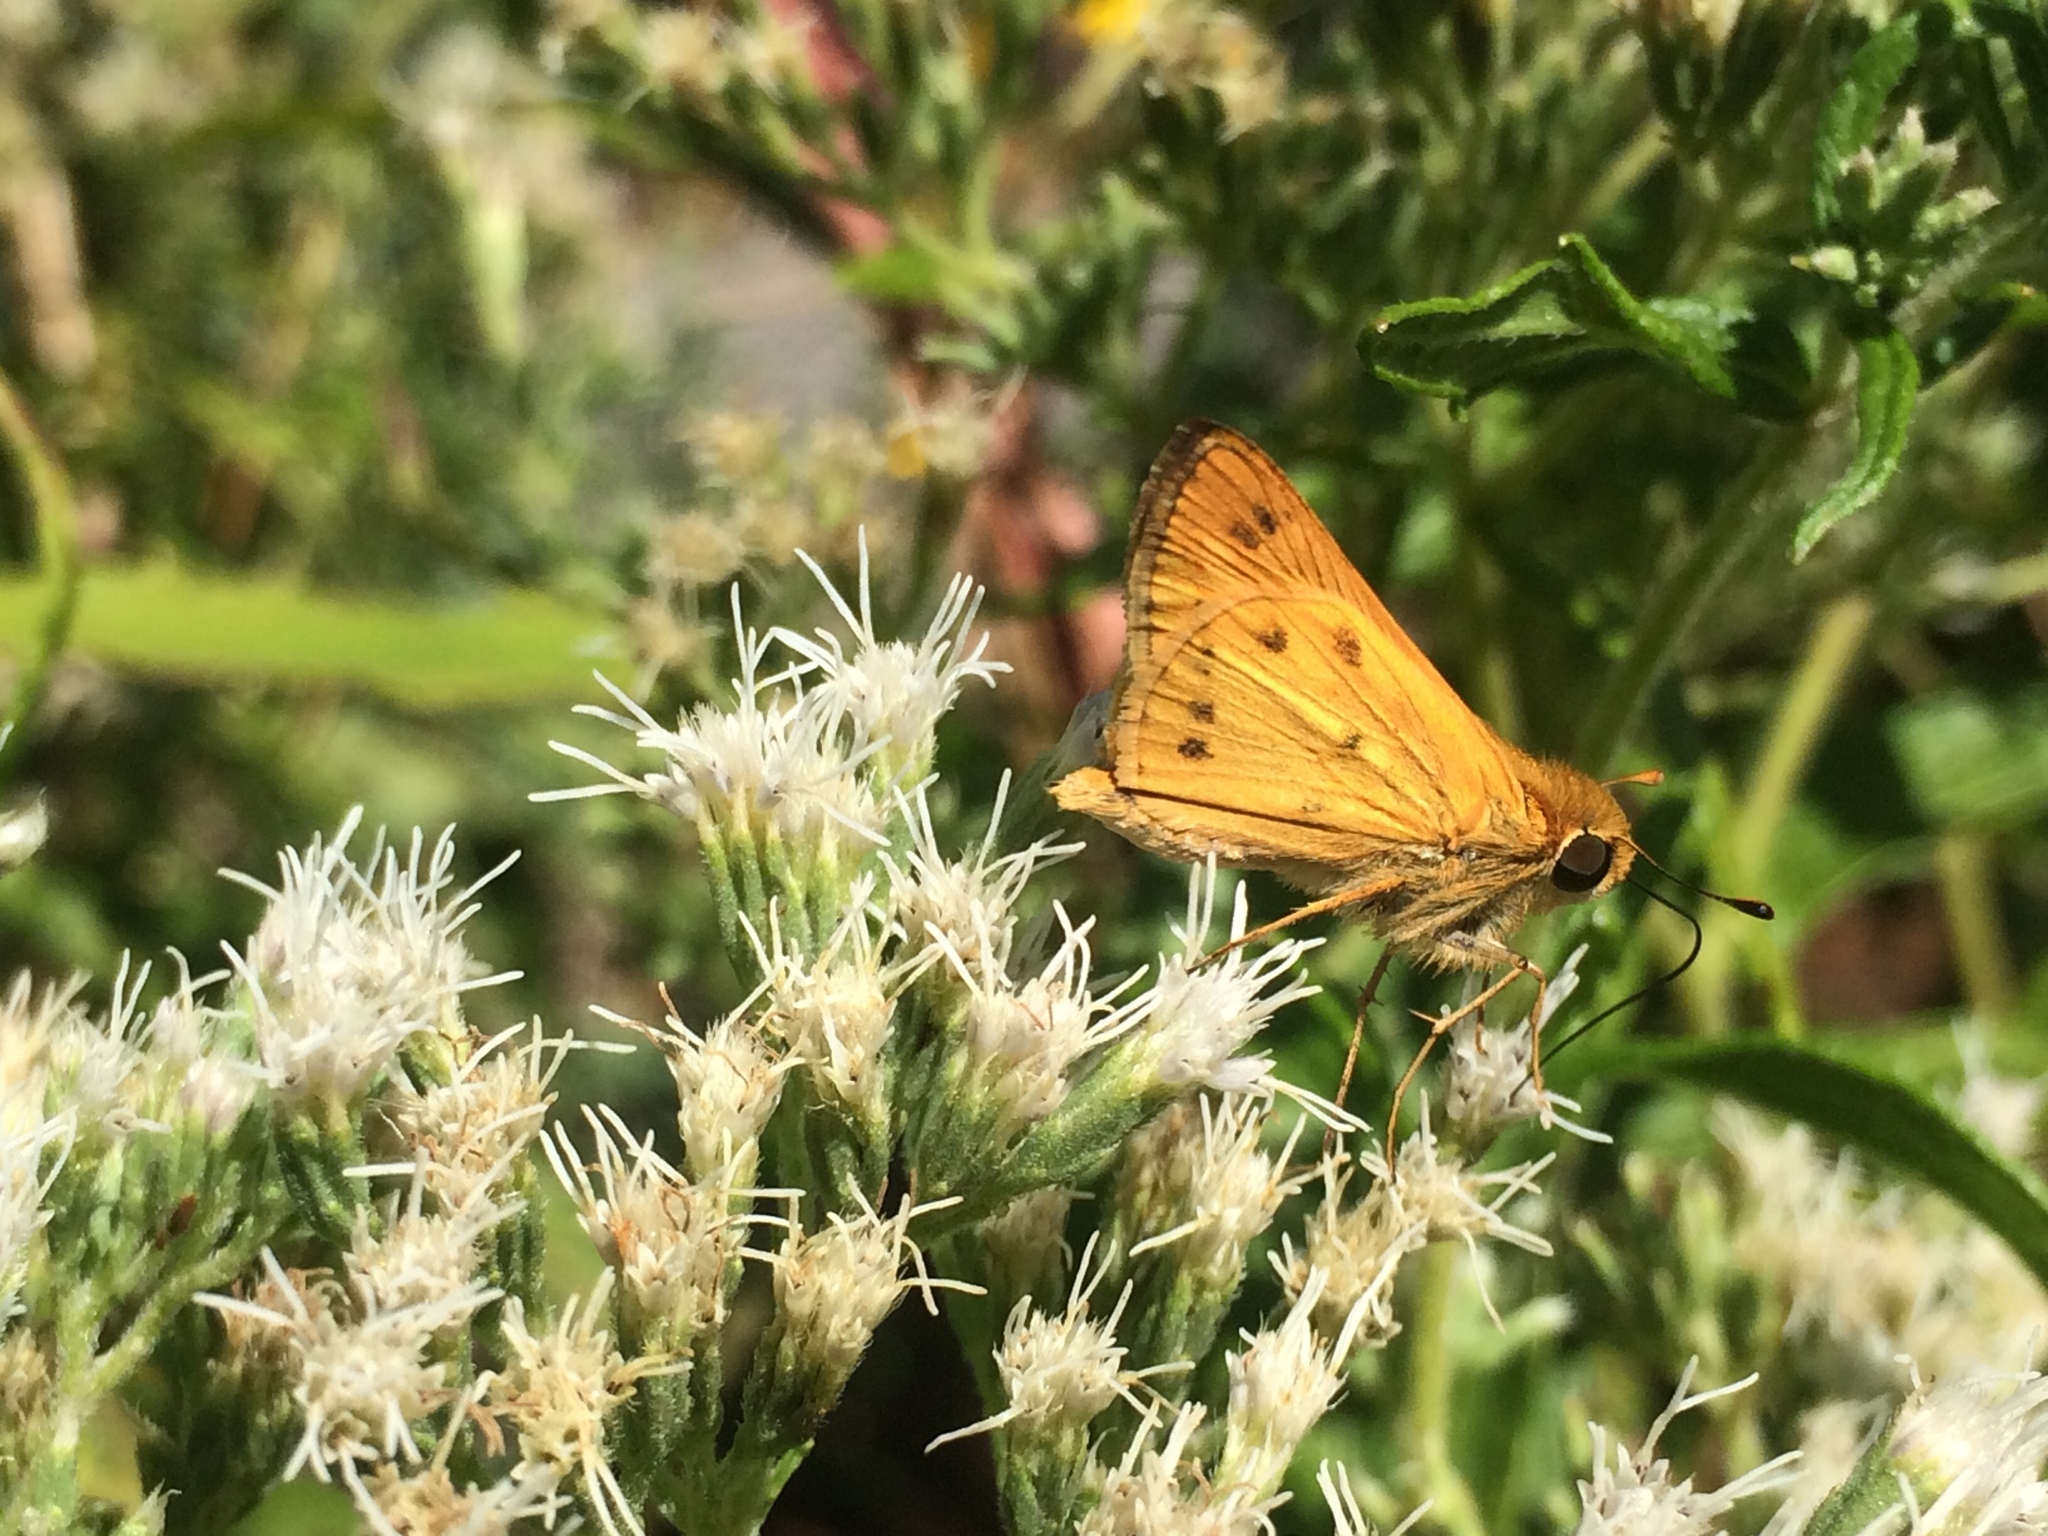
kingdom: Animalia
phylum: Arthropoda
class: Insecta
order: Lepidoptera
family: Hesperiidae
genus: Hylephila
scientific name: Hylephila phyleus
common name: Fiery skipper
